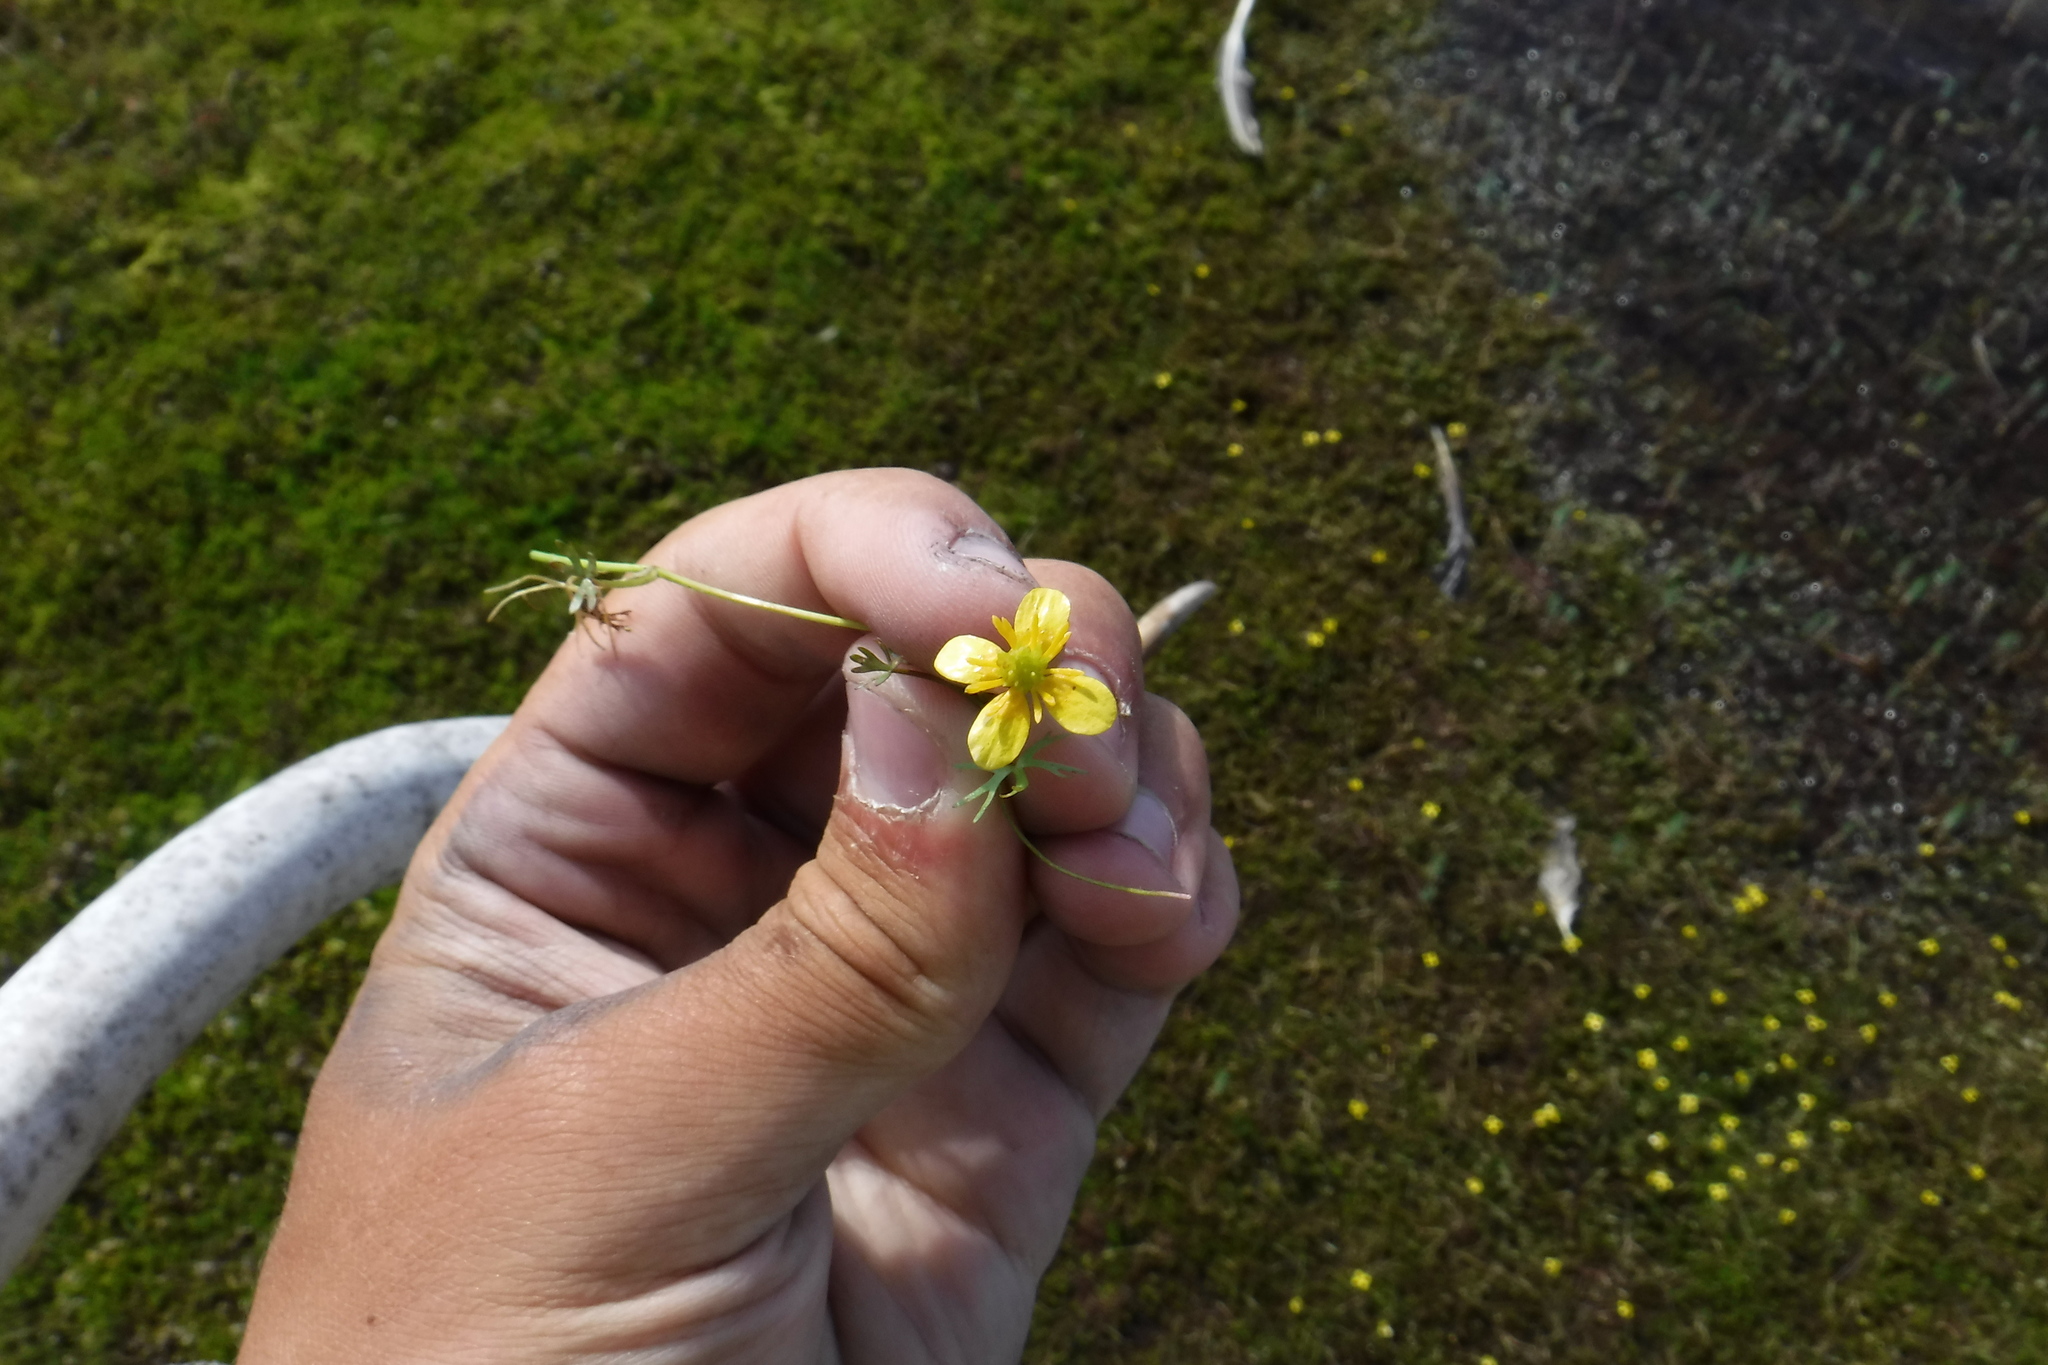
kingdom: Plantae
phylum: Tracheophyta
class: Magnoliopsida
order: Ranunculales
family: Ranunculaceae
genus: Ranunculus
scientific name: Ranunculus gmelinii
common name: Gmelin's buttercup
